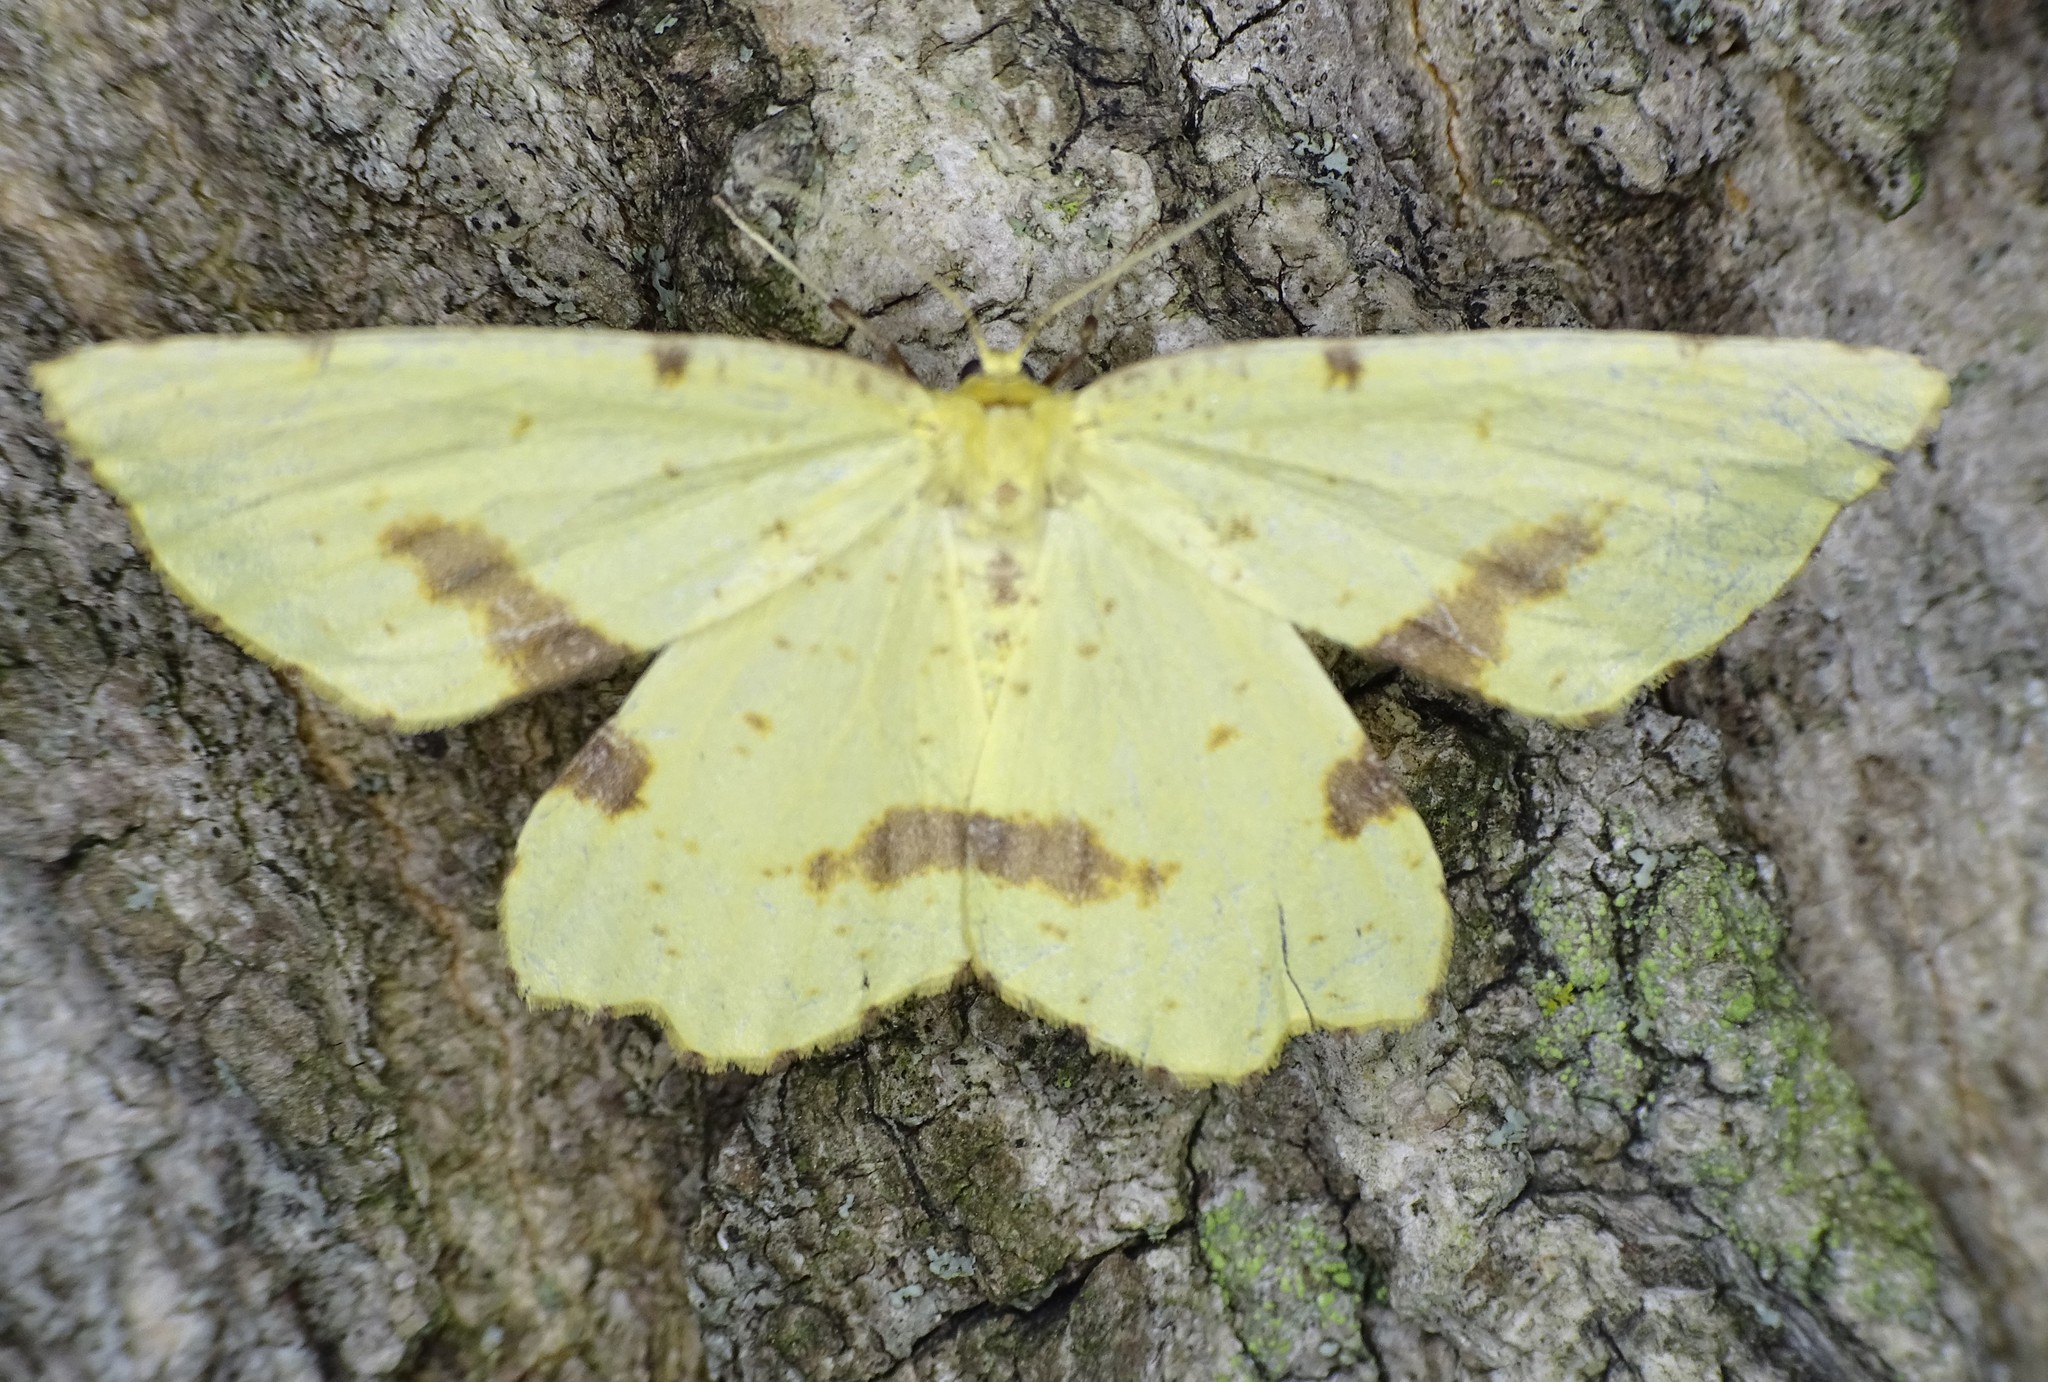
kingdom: Animalia
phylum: Arthropoda
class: Insecta
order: Lepidoptera
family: Geometridae
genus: Xanthotype
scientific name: Xanthotype
